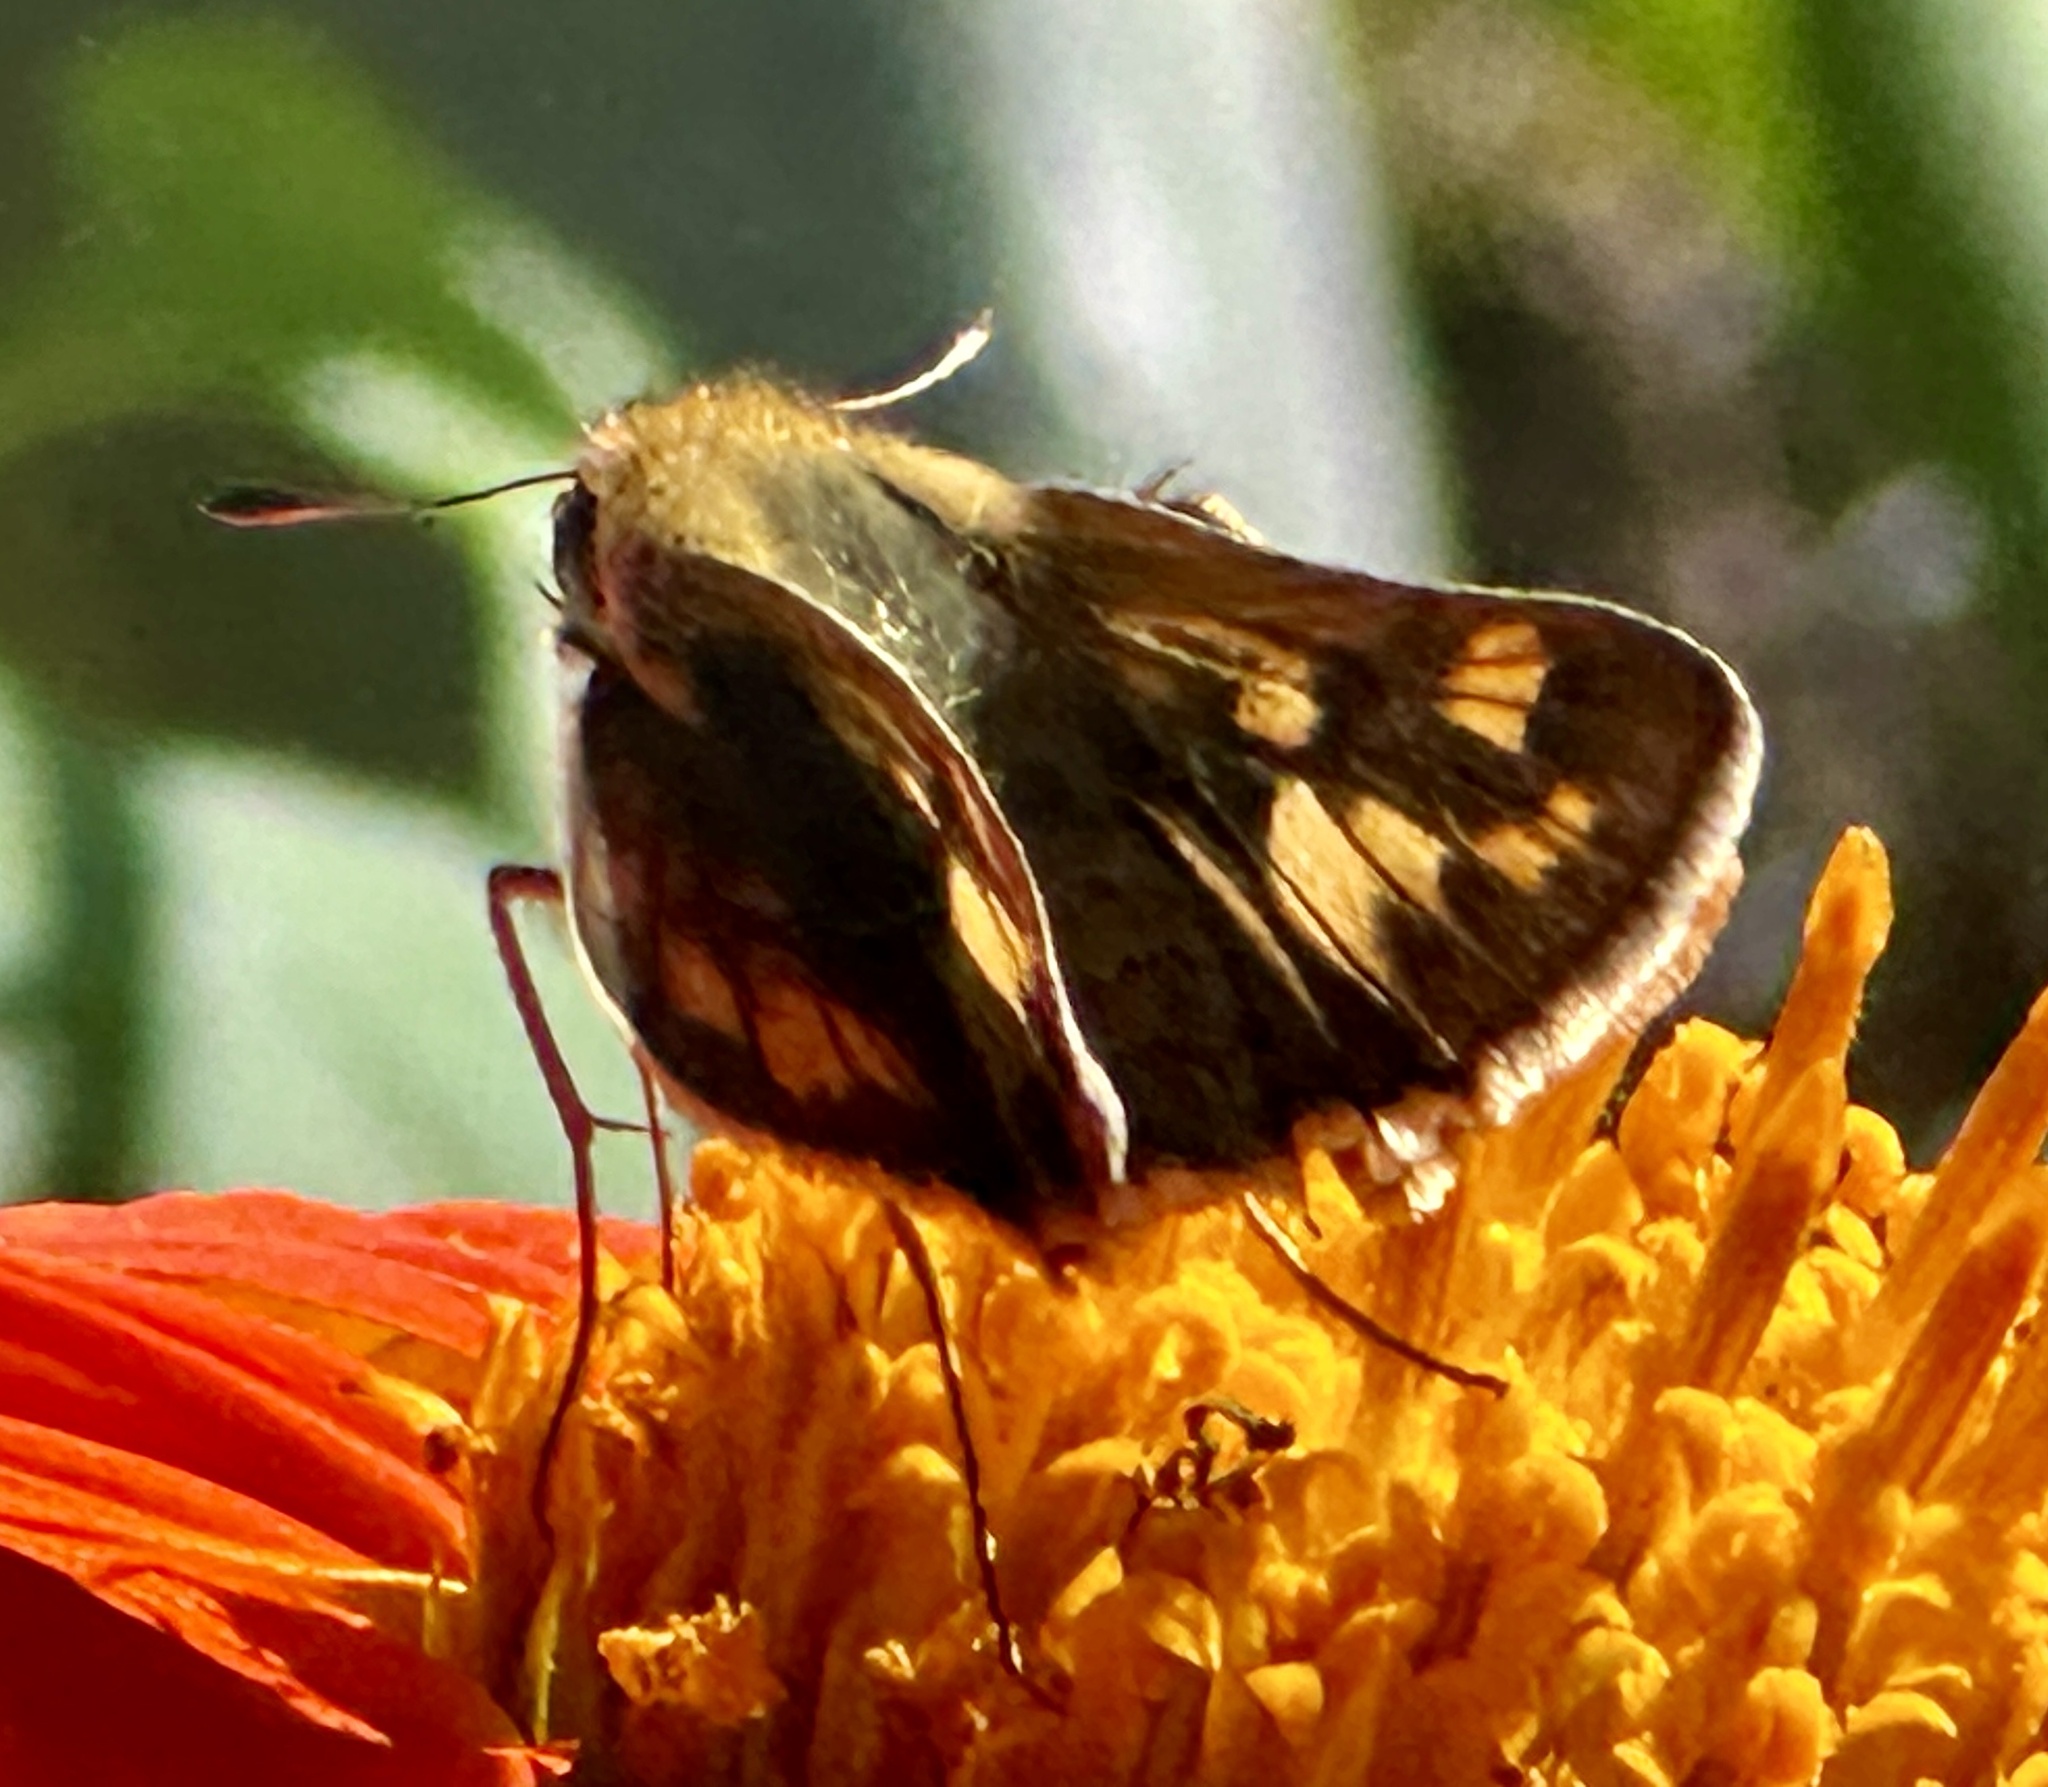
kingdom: Animalia
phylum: Arthropoda
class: Insecta
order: Lepidoptera
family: Hesperiidae
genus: Hylephila
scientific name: Hylephila phyleus
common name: Fiery skipper
